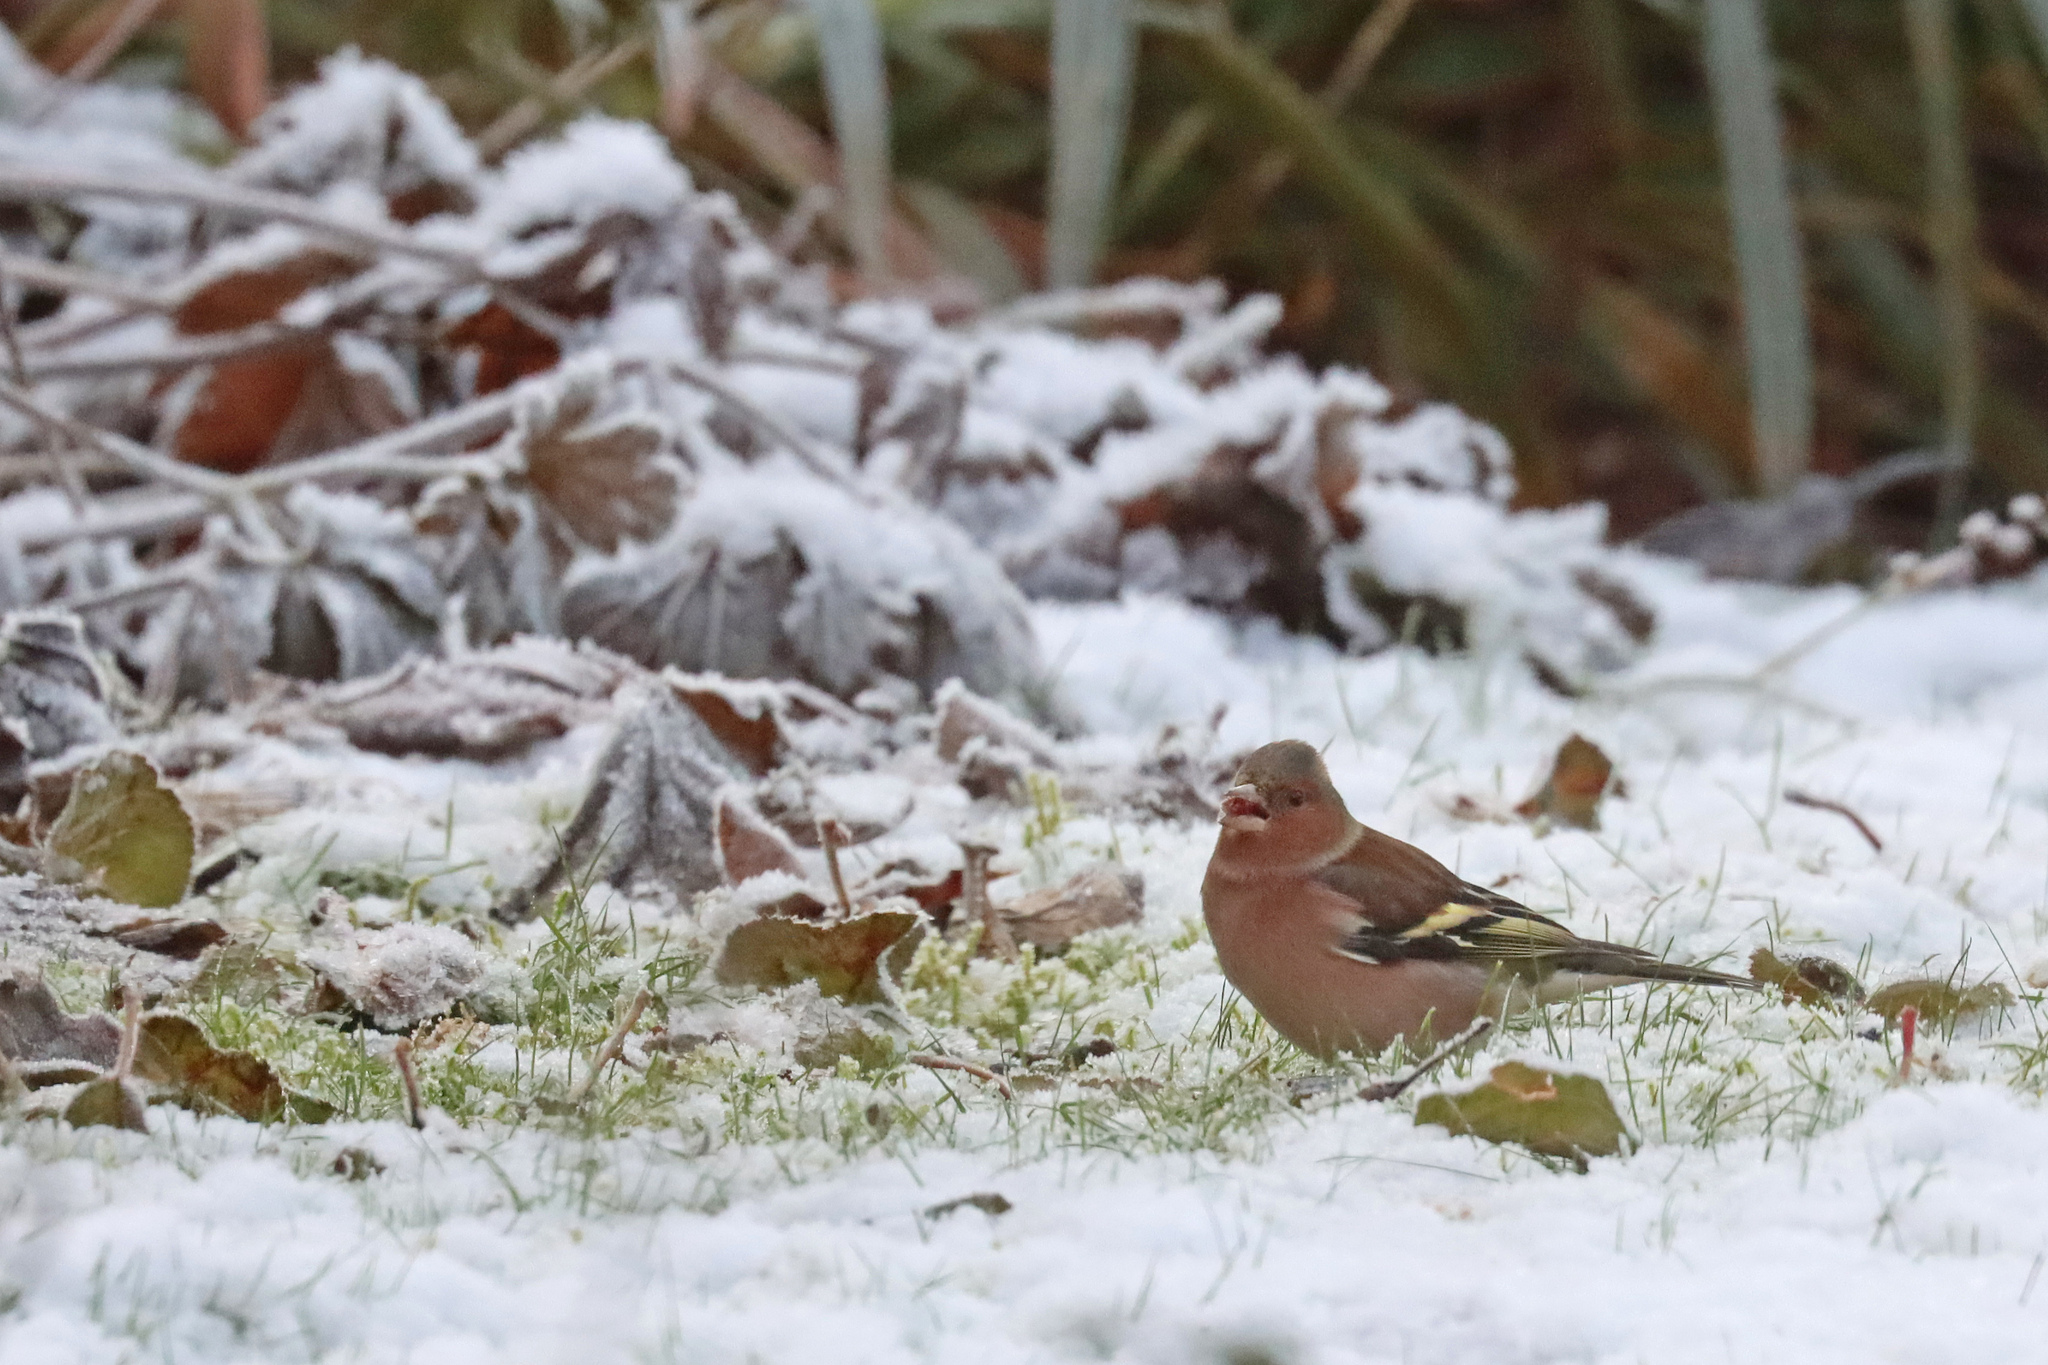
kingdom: Animalia
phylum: Chordata
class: Aves
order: Passeriformes
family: Fringillidae
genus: Fringilla
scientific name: Fringilla coelebs
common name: Common chaffinch
